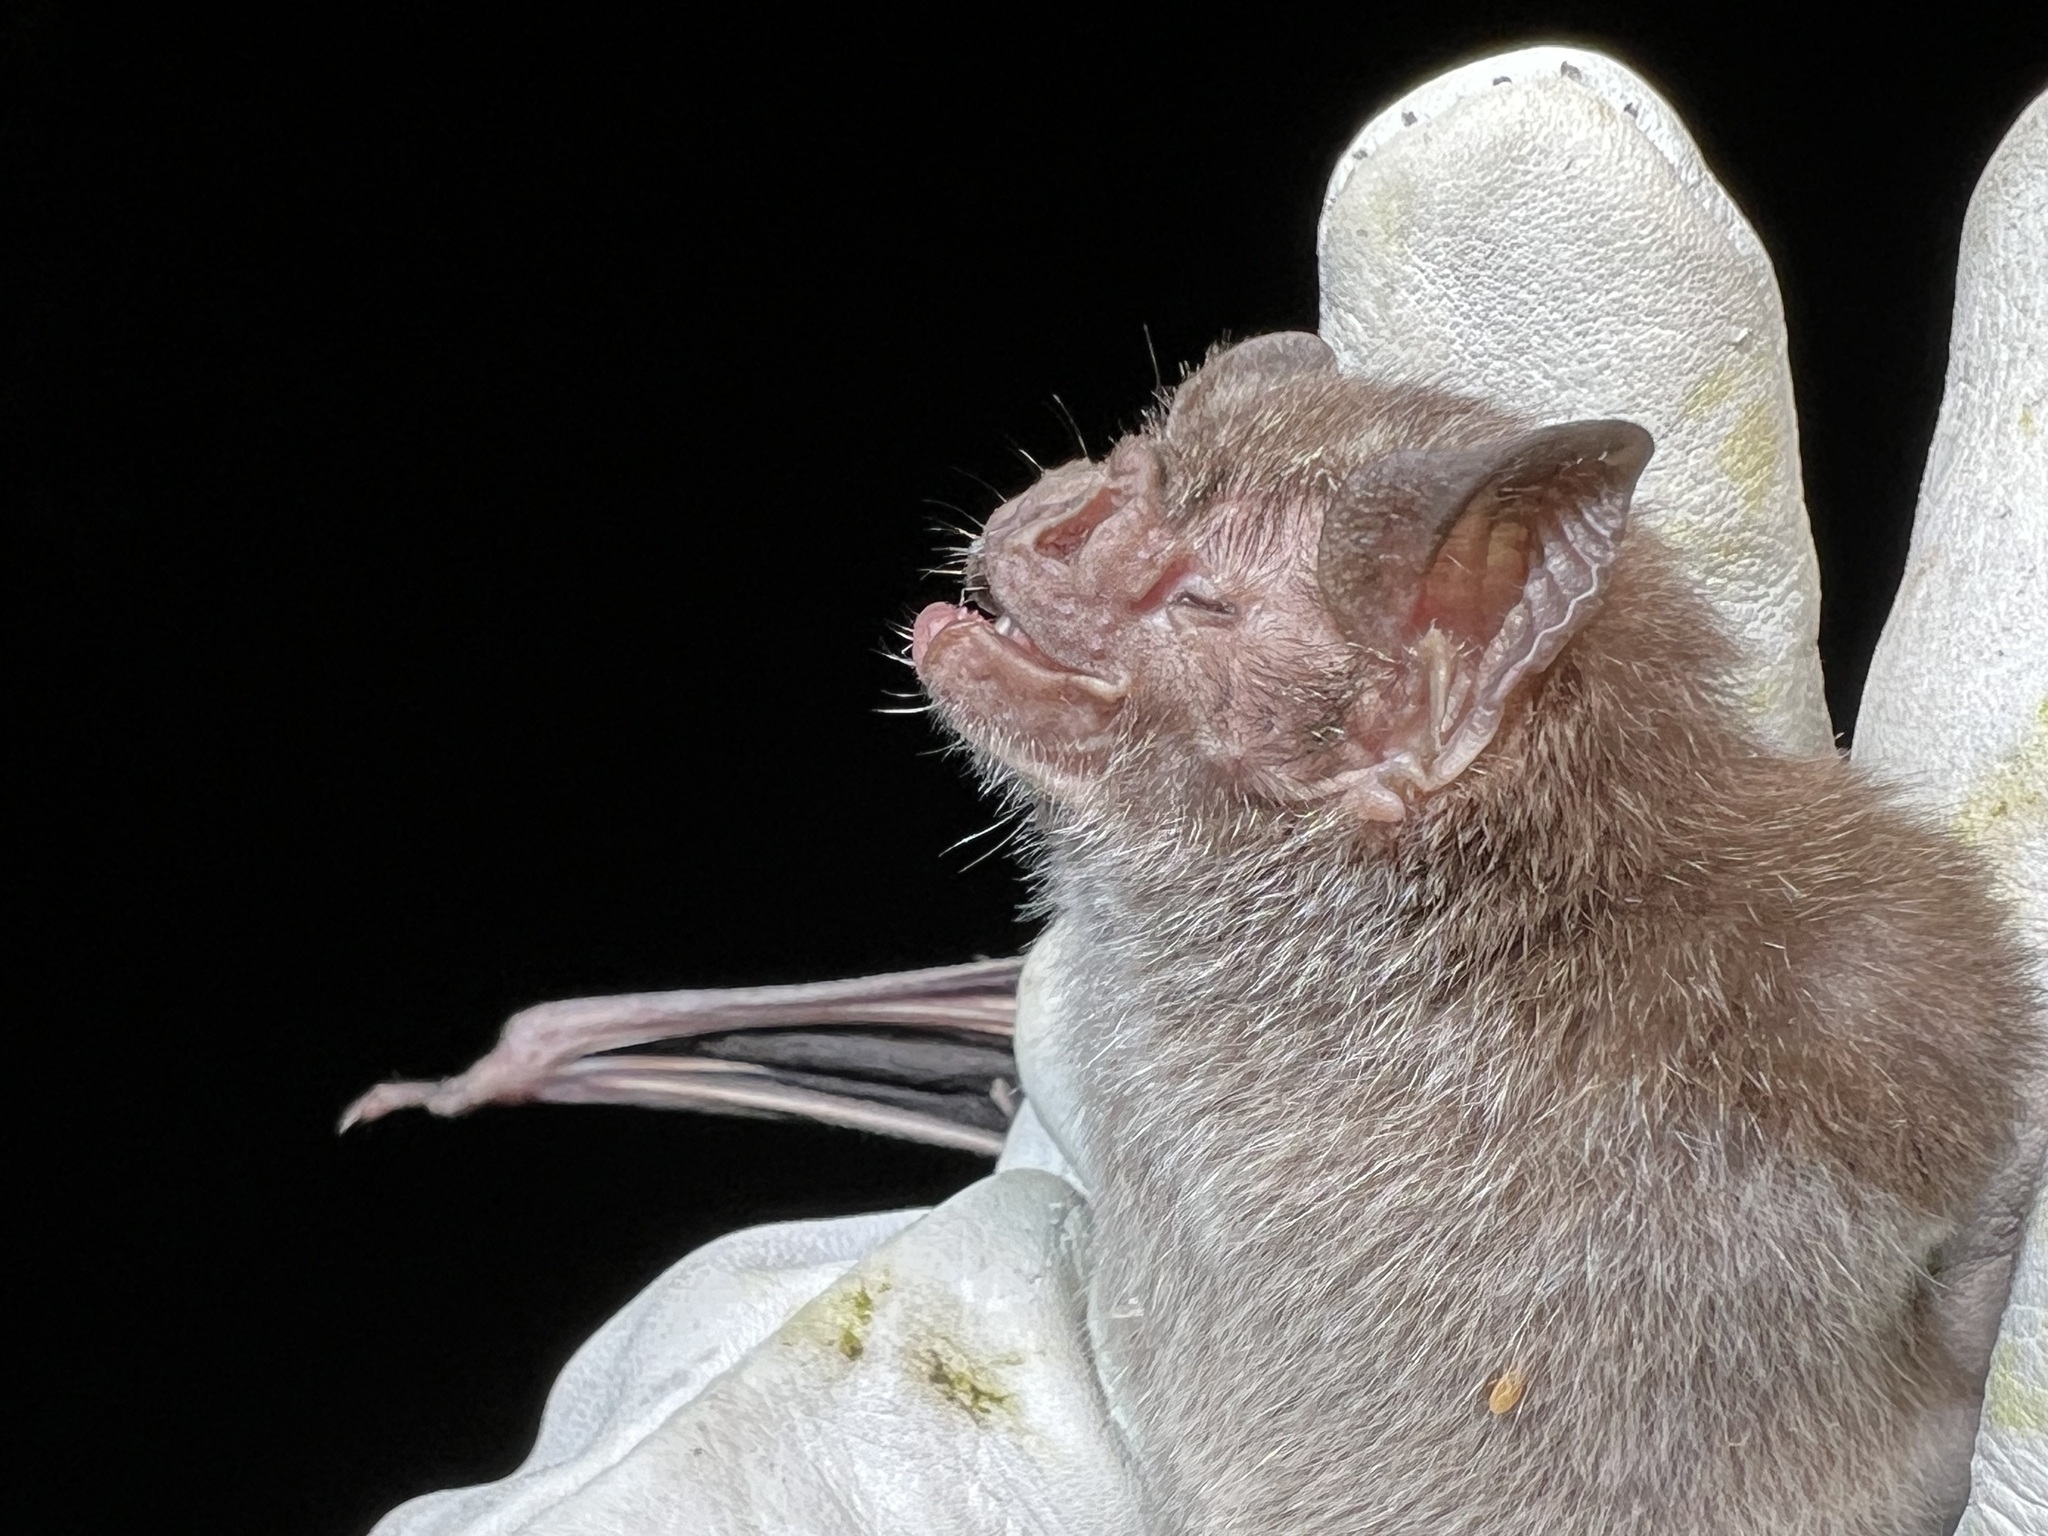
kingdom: Animalia
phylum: Chordata
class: Mammalia
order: Chiroptera
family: Phyllostomidae
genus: Desmodus
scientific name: Desmodus rotundus
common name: Common vampire bat
